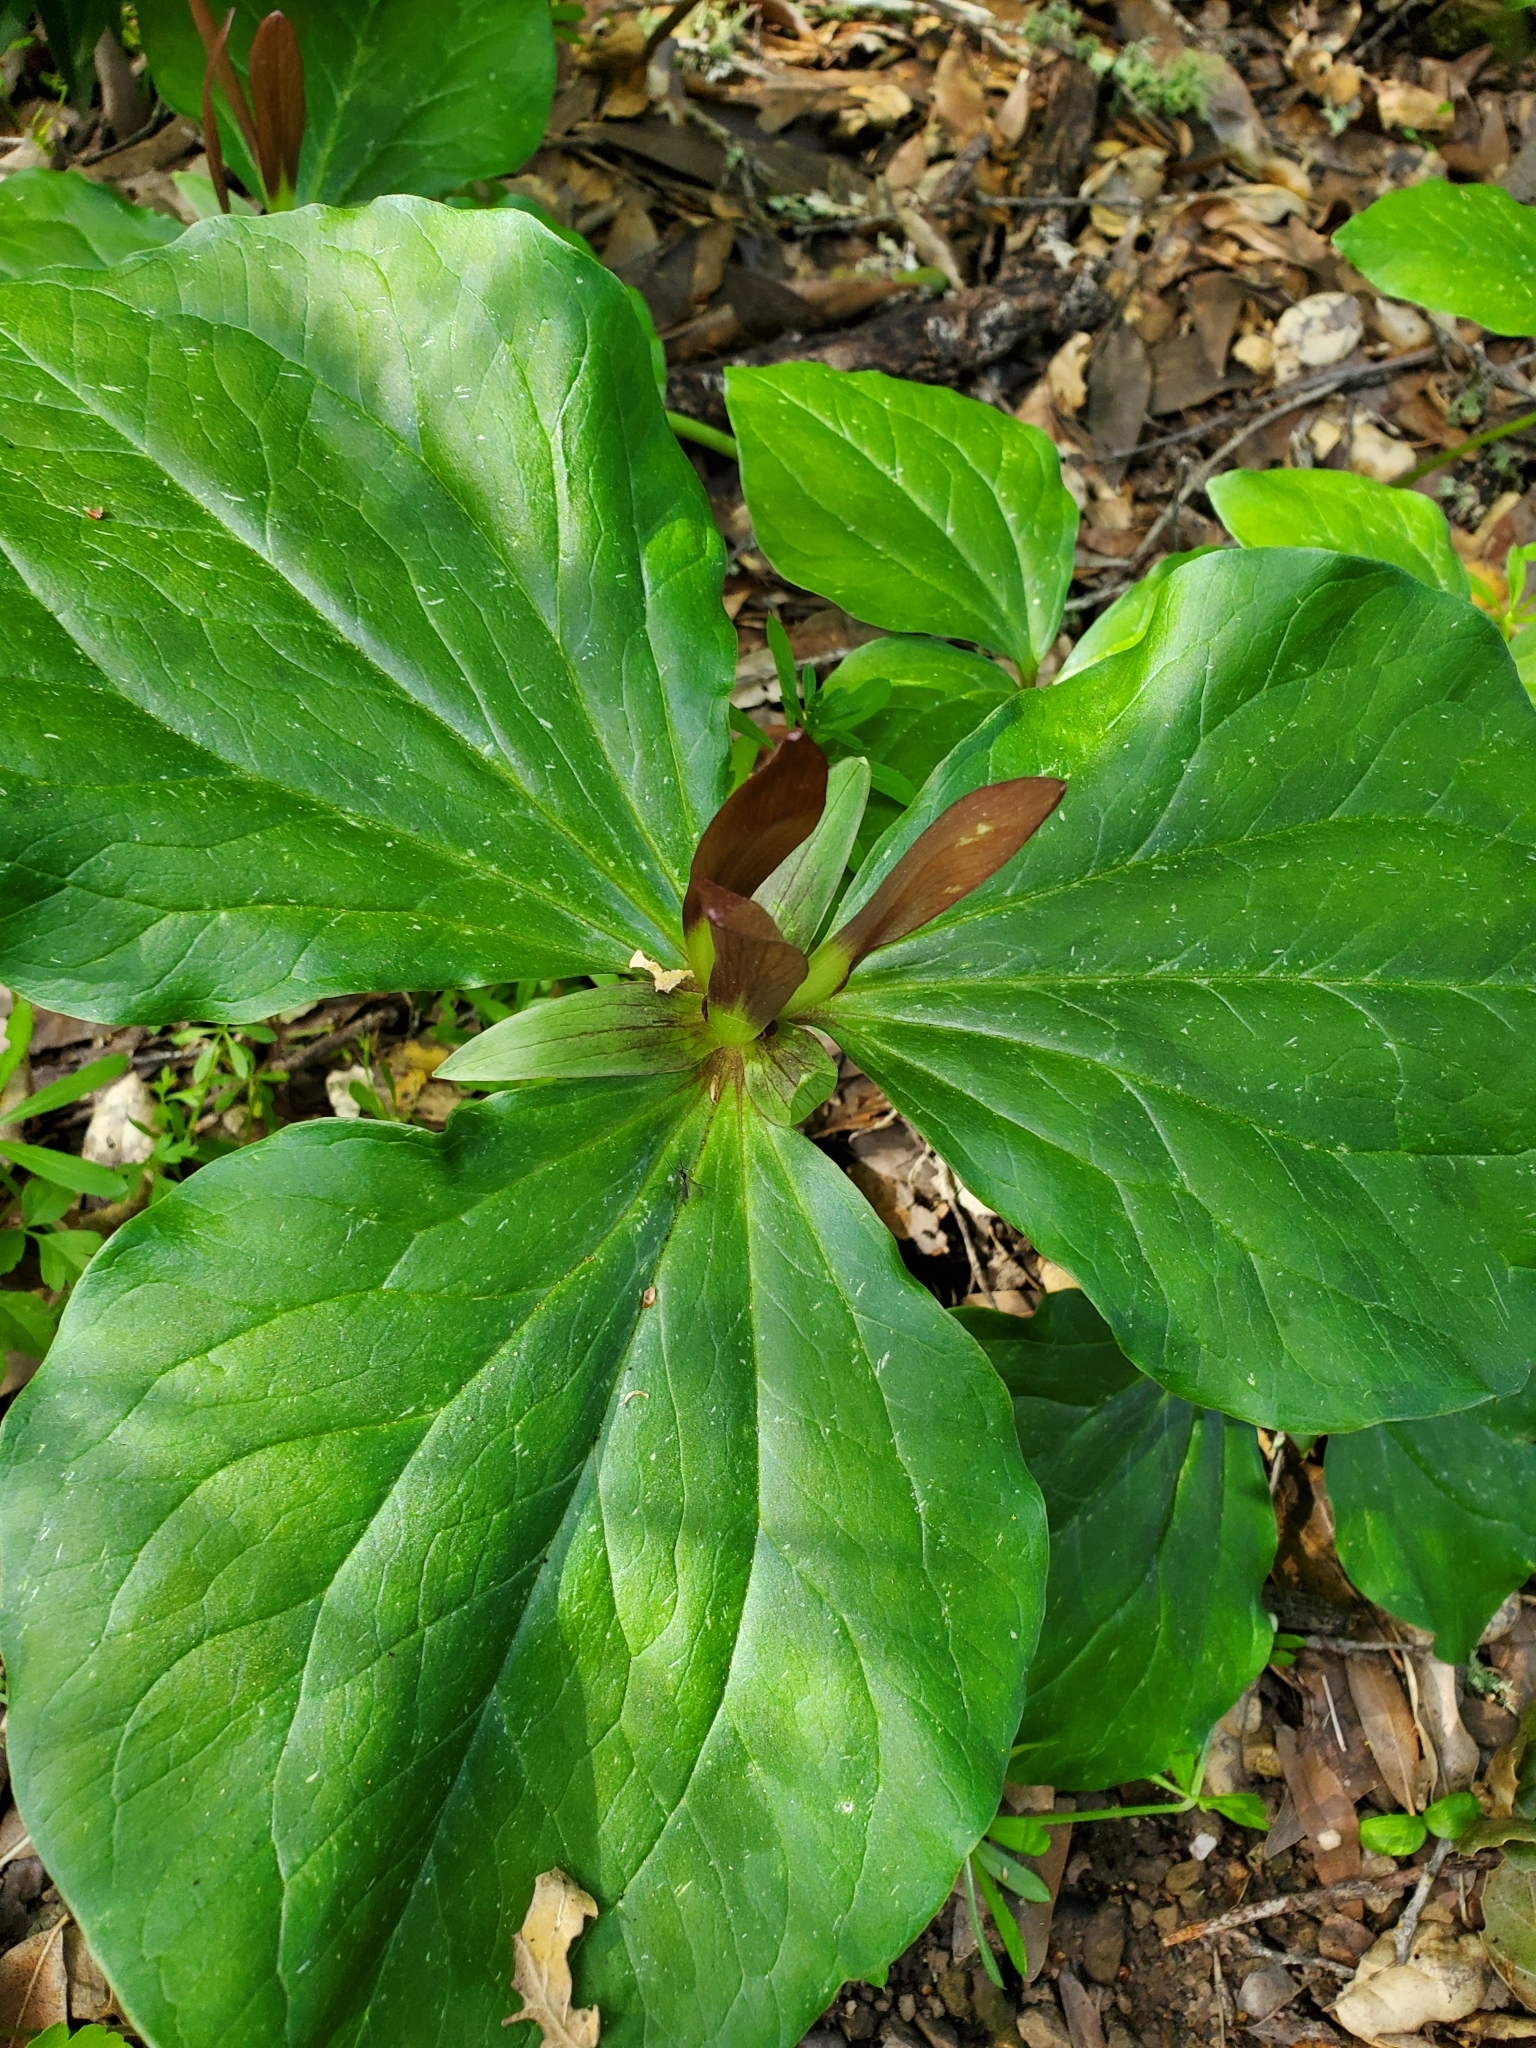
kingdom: Plantae
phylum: Tracheophyta
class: Liliopsida
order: Liliales
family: Melanthiaceae
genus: Trillium
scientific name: Trillium chloropetalum
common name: Giant trillium
